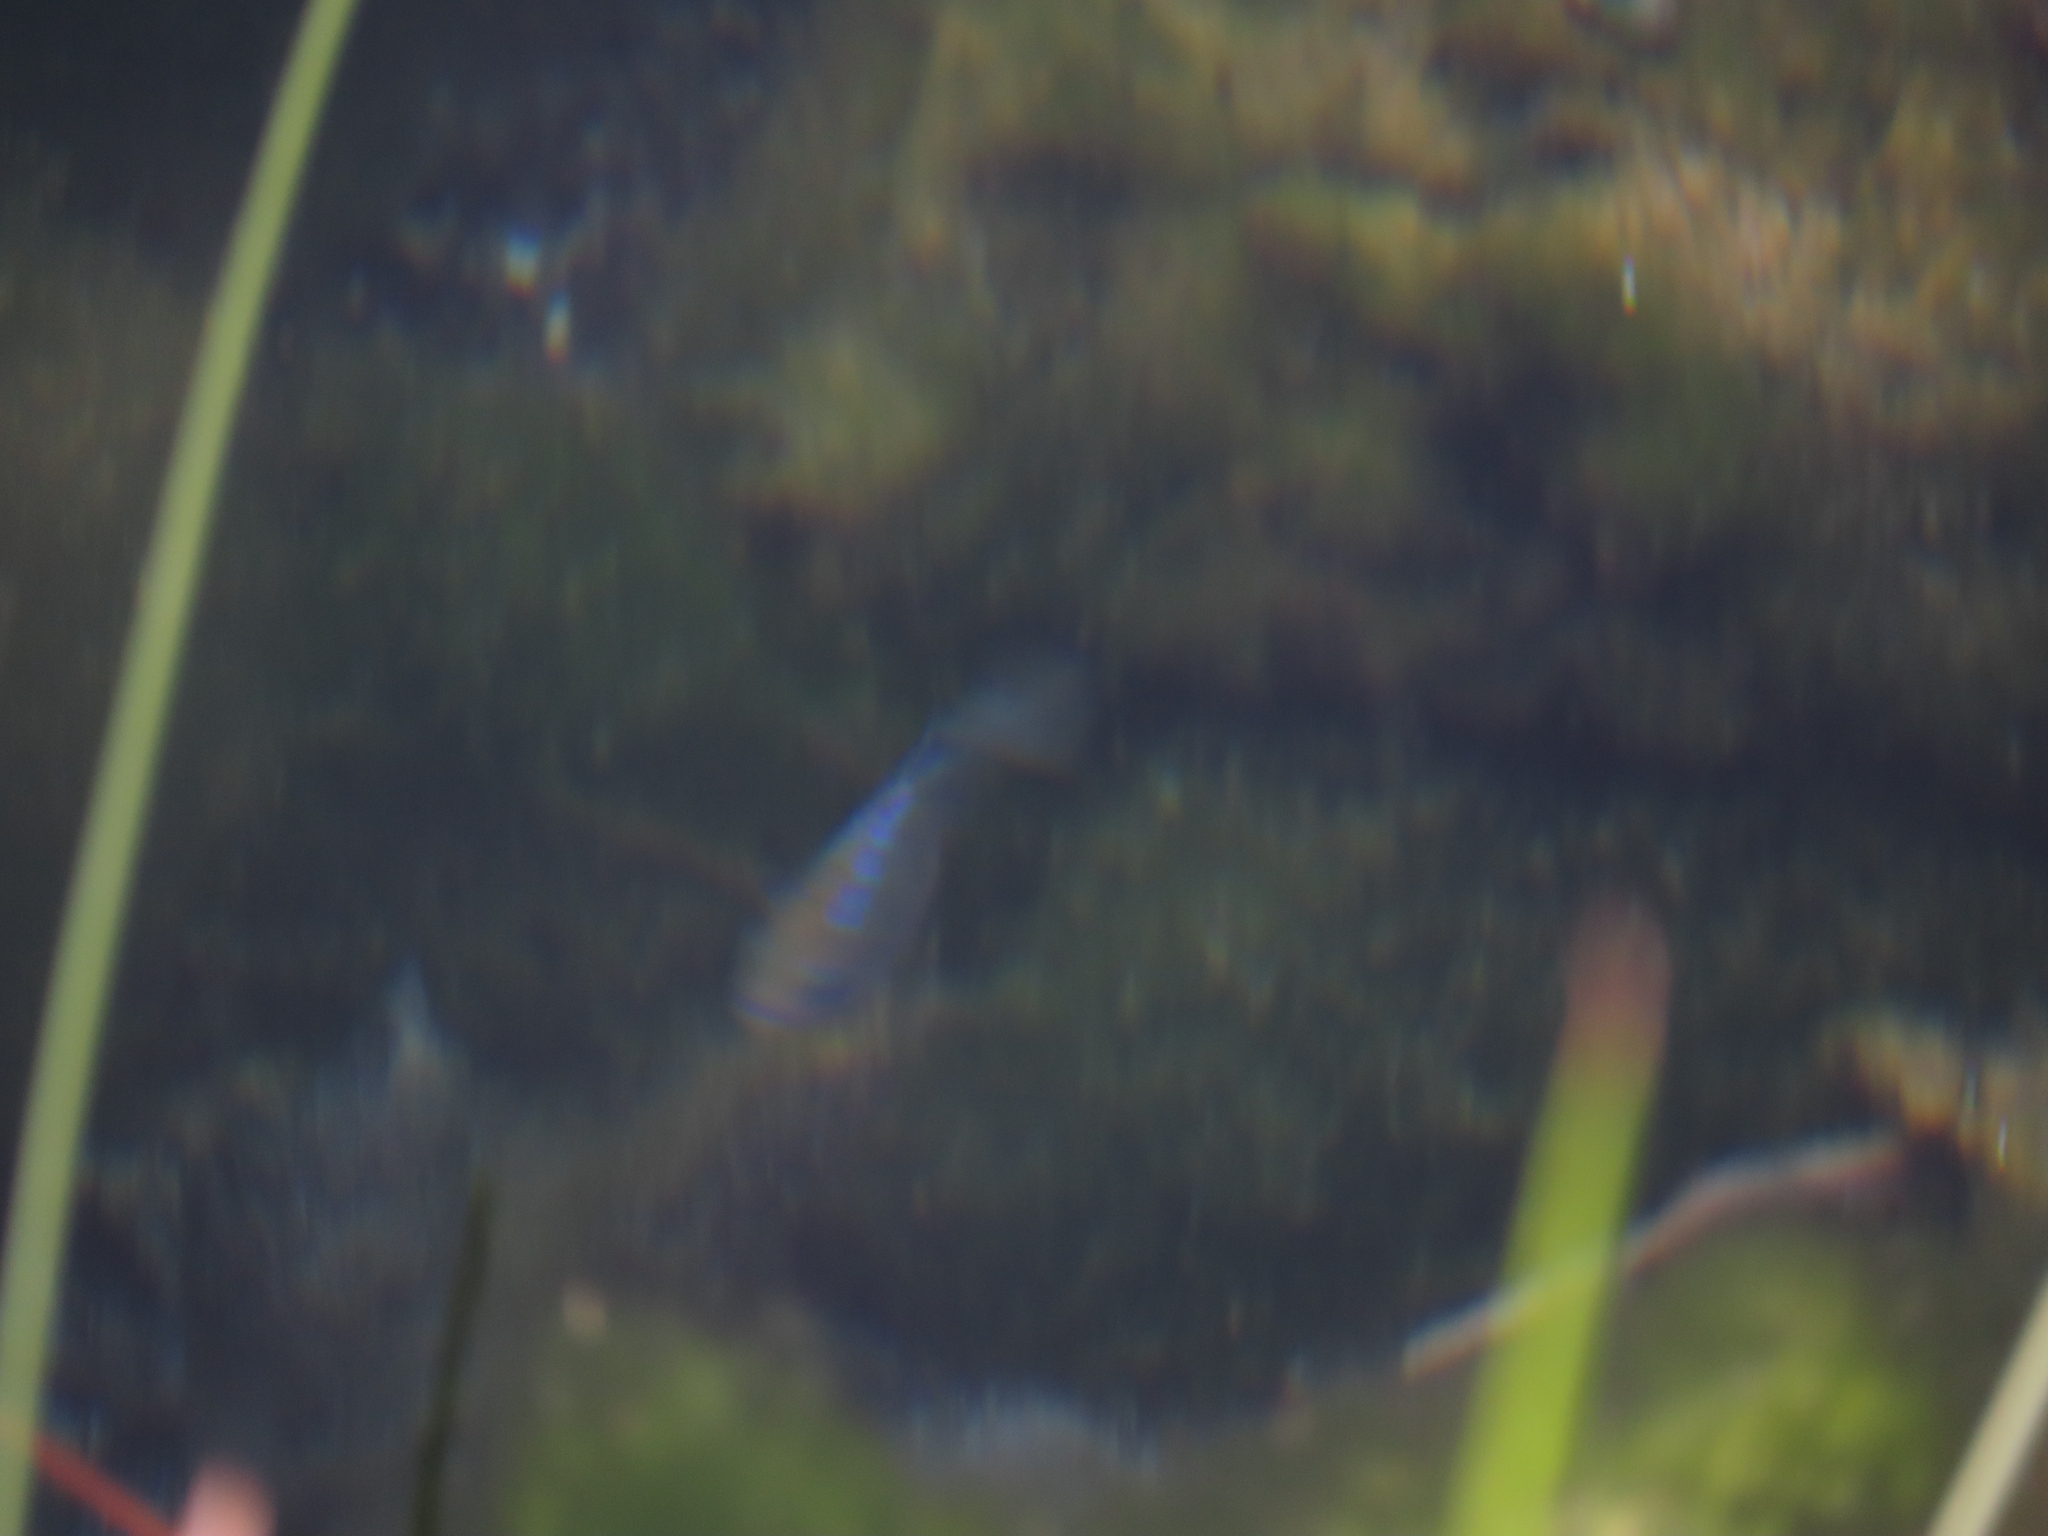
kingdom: Animalia
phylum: Chordata
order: Cyprinodontiformes
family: Cyprinodontidae
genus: Cyprinodon
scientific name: Cyprinodon nevadensis
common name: Amargosa pupfish
